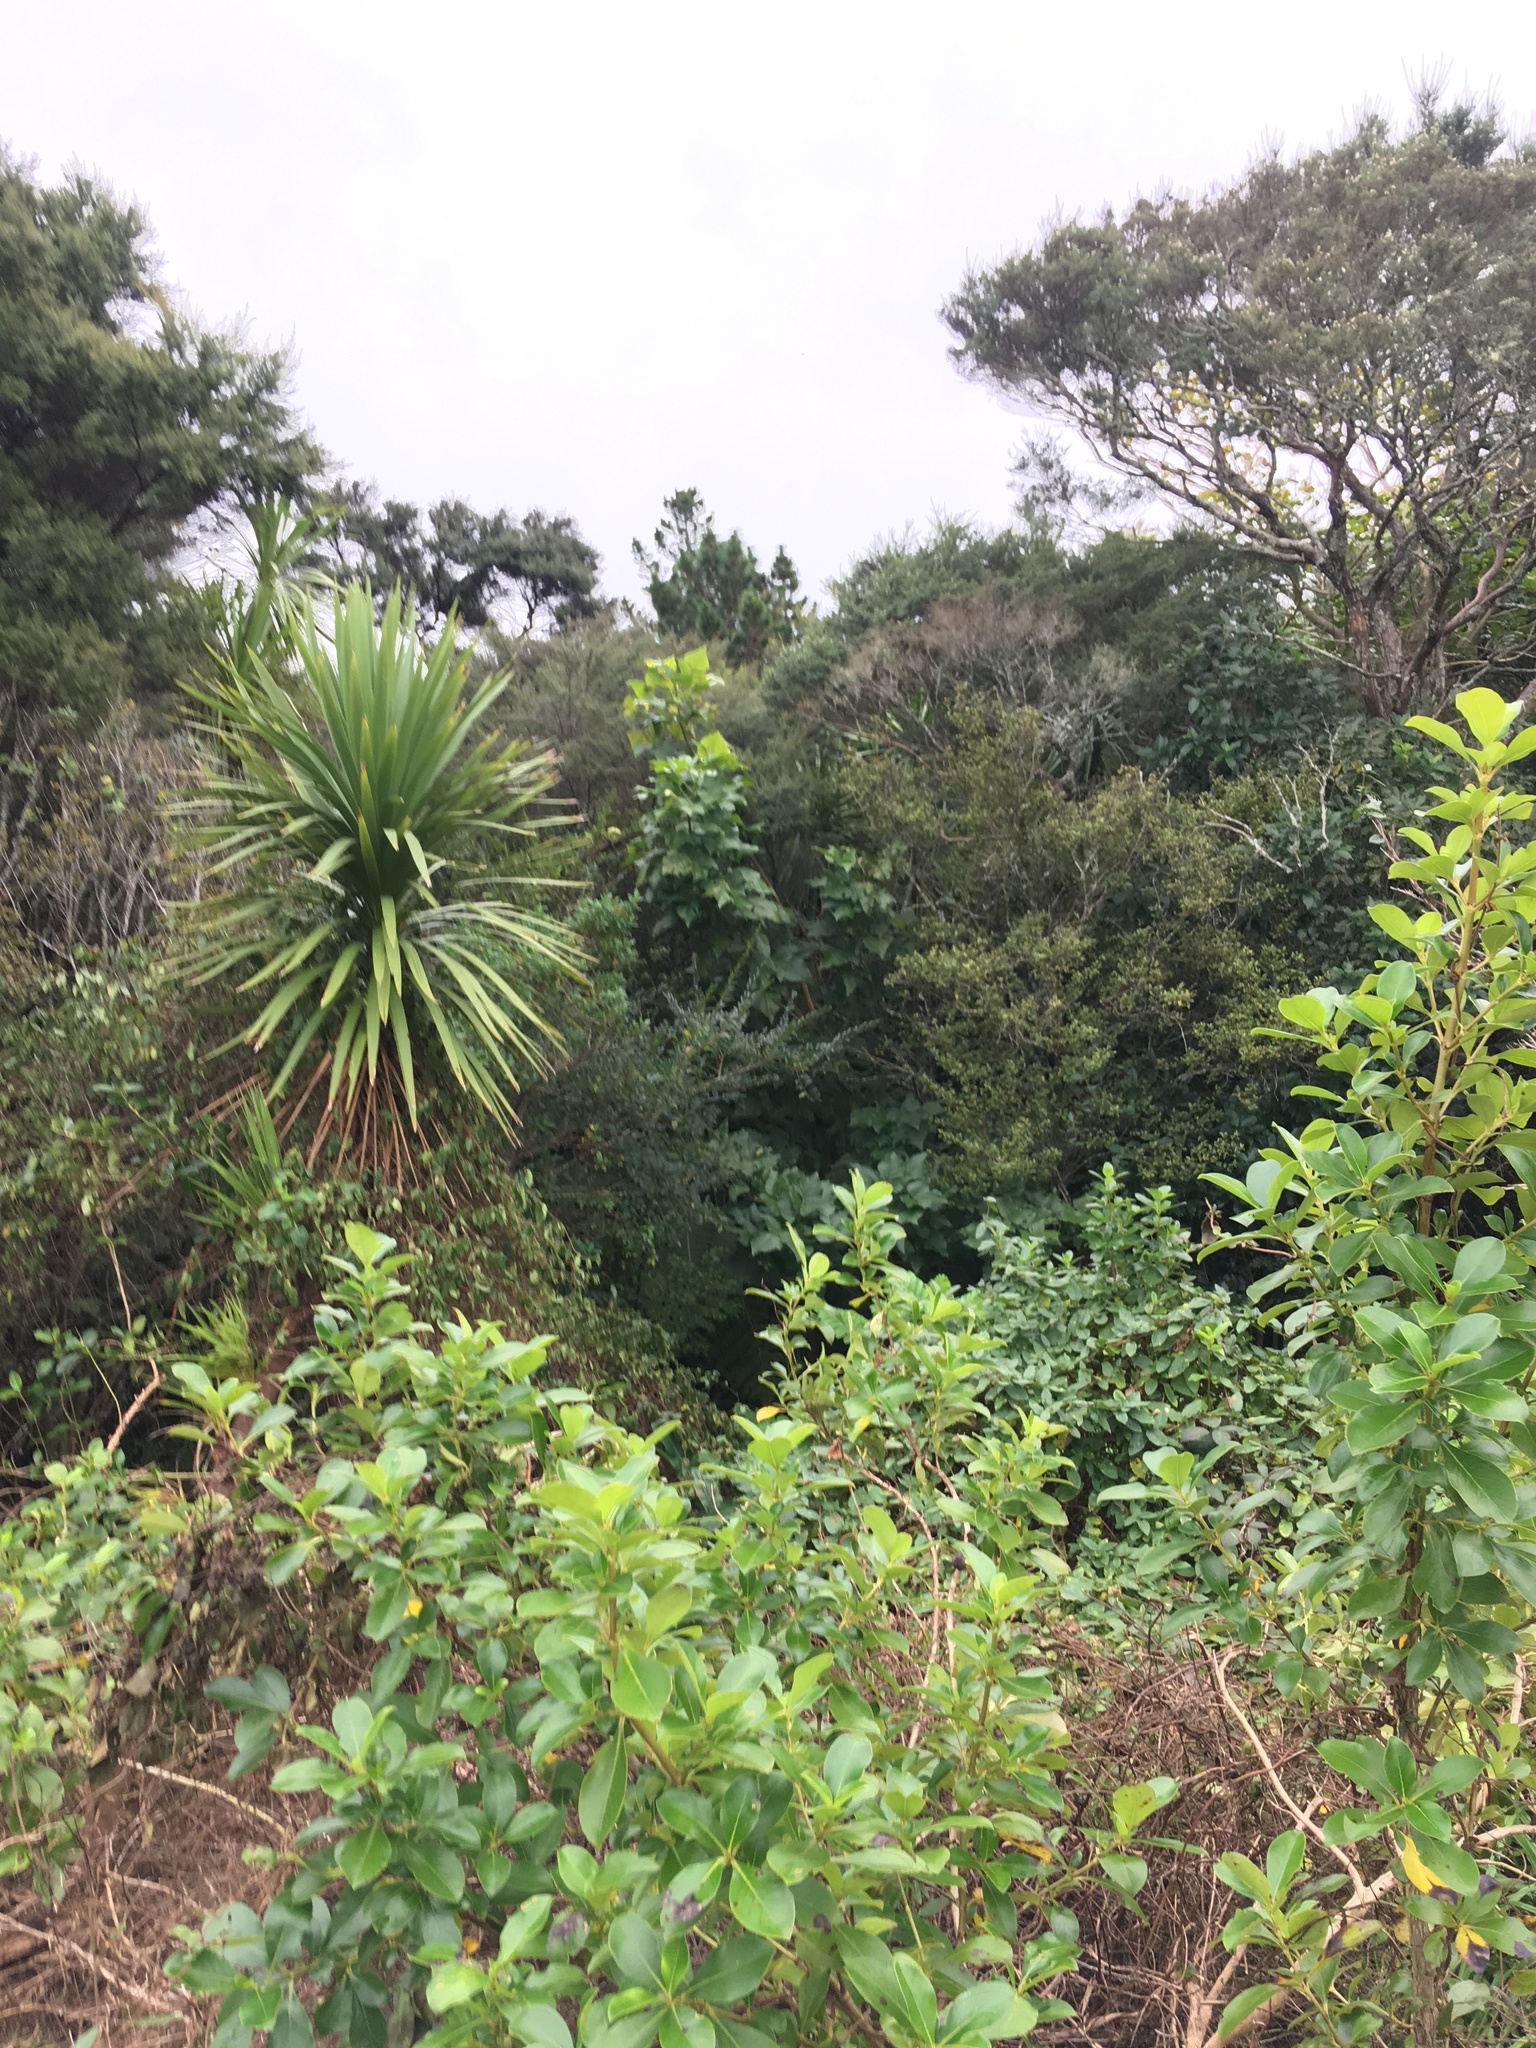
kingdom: Plantae
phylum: Tracheophyta
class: Magnoliopsida
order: Fabales
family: Fabaceae
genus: Erythrina
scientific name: Erythrina sykesii
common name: Coraltree
